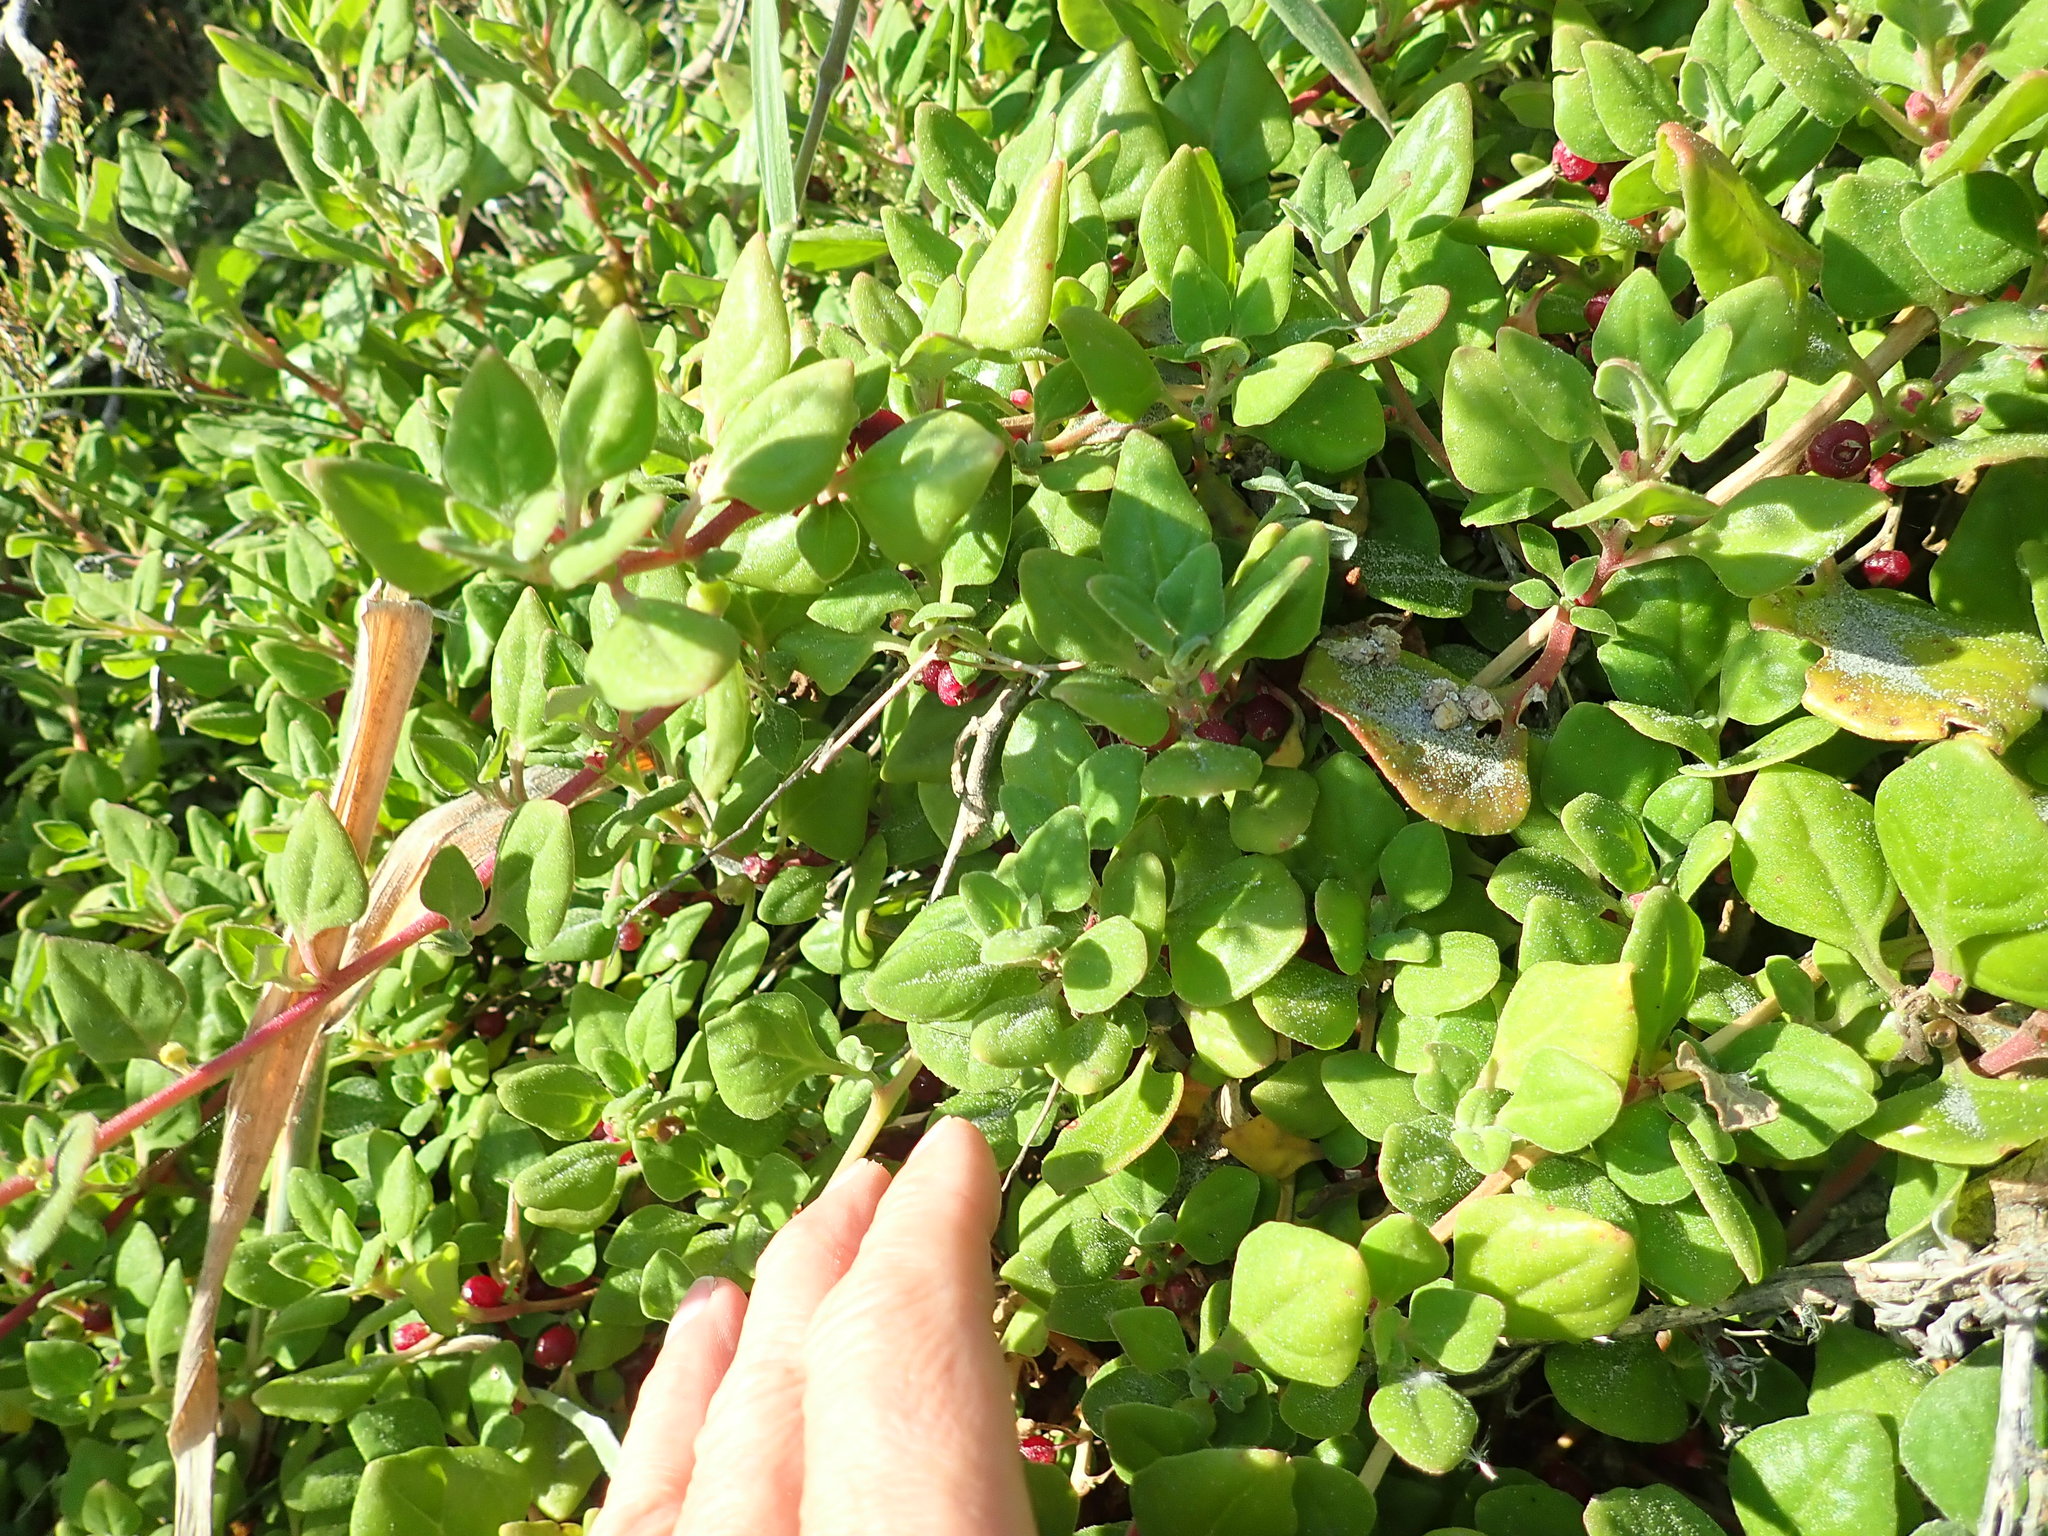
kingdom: Plantae
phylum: Tracheophyta
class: Magnoliopsida
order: Caryophyllales
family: Aizoaceae
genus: Tetragonia
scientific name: Tetragonia implexicoma
